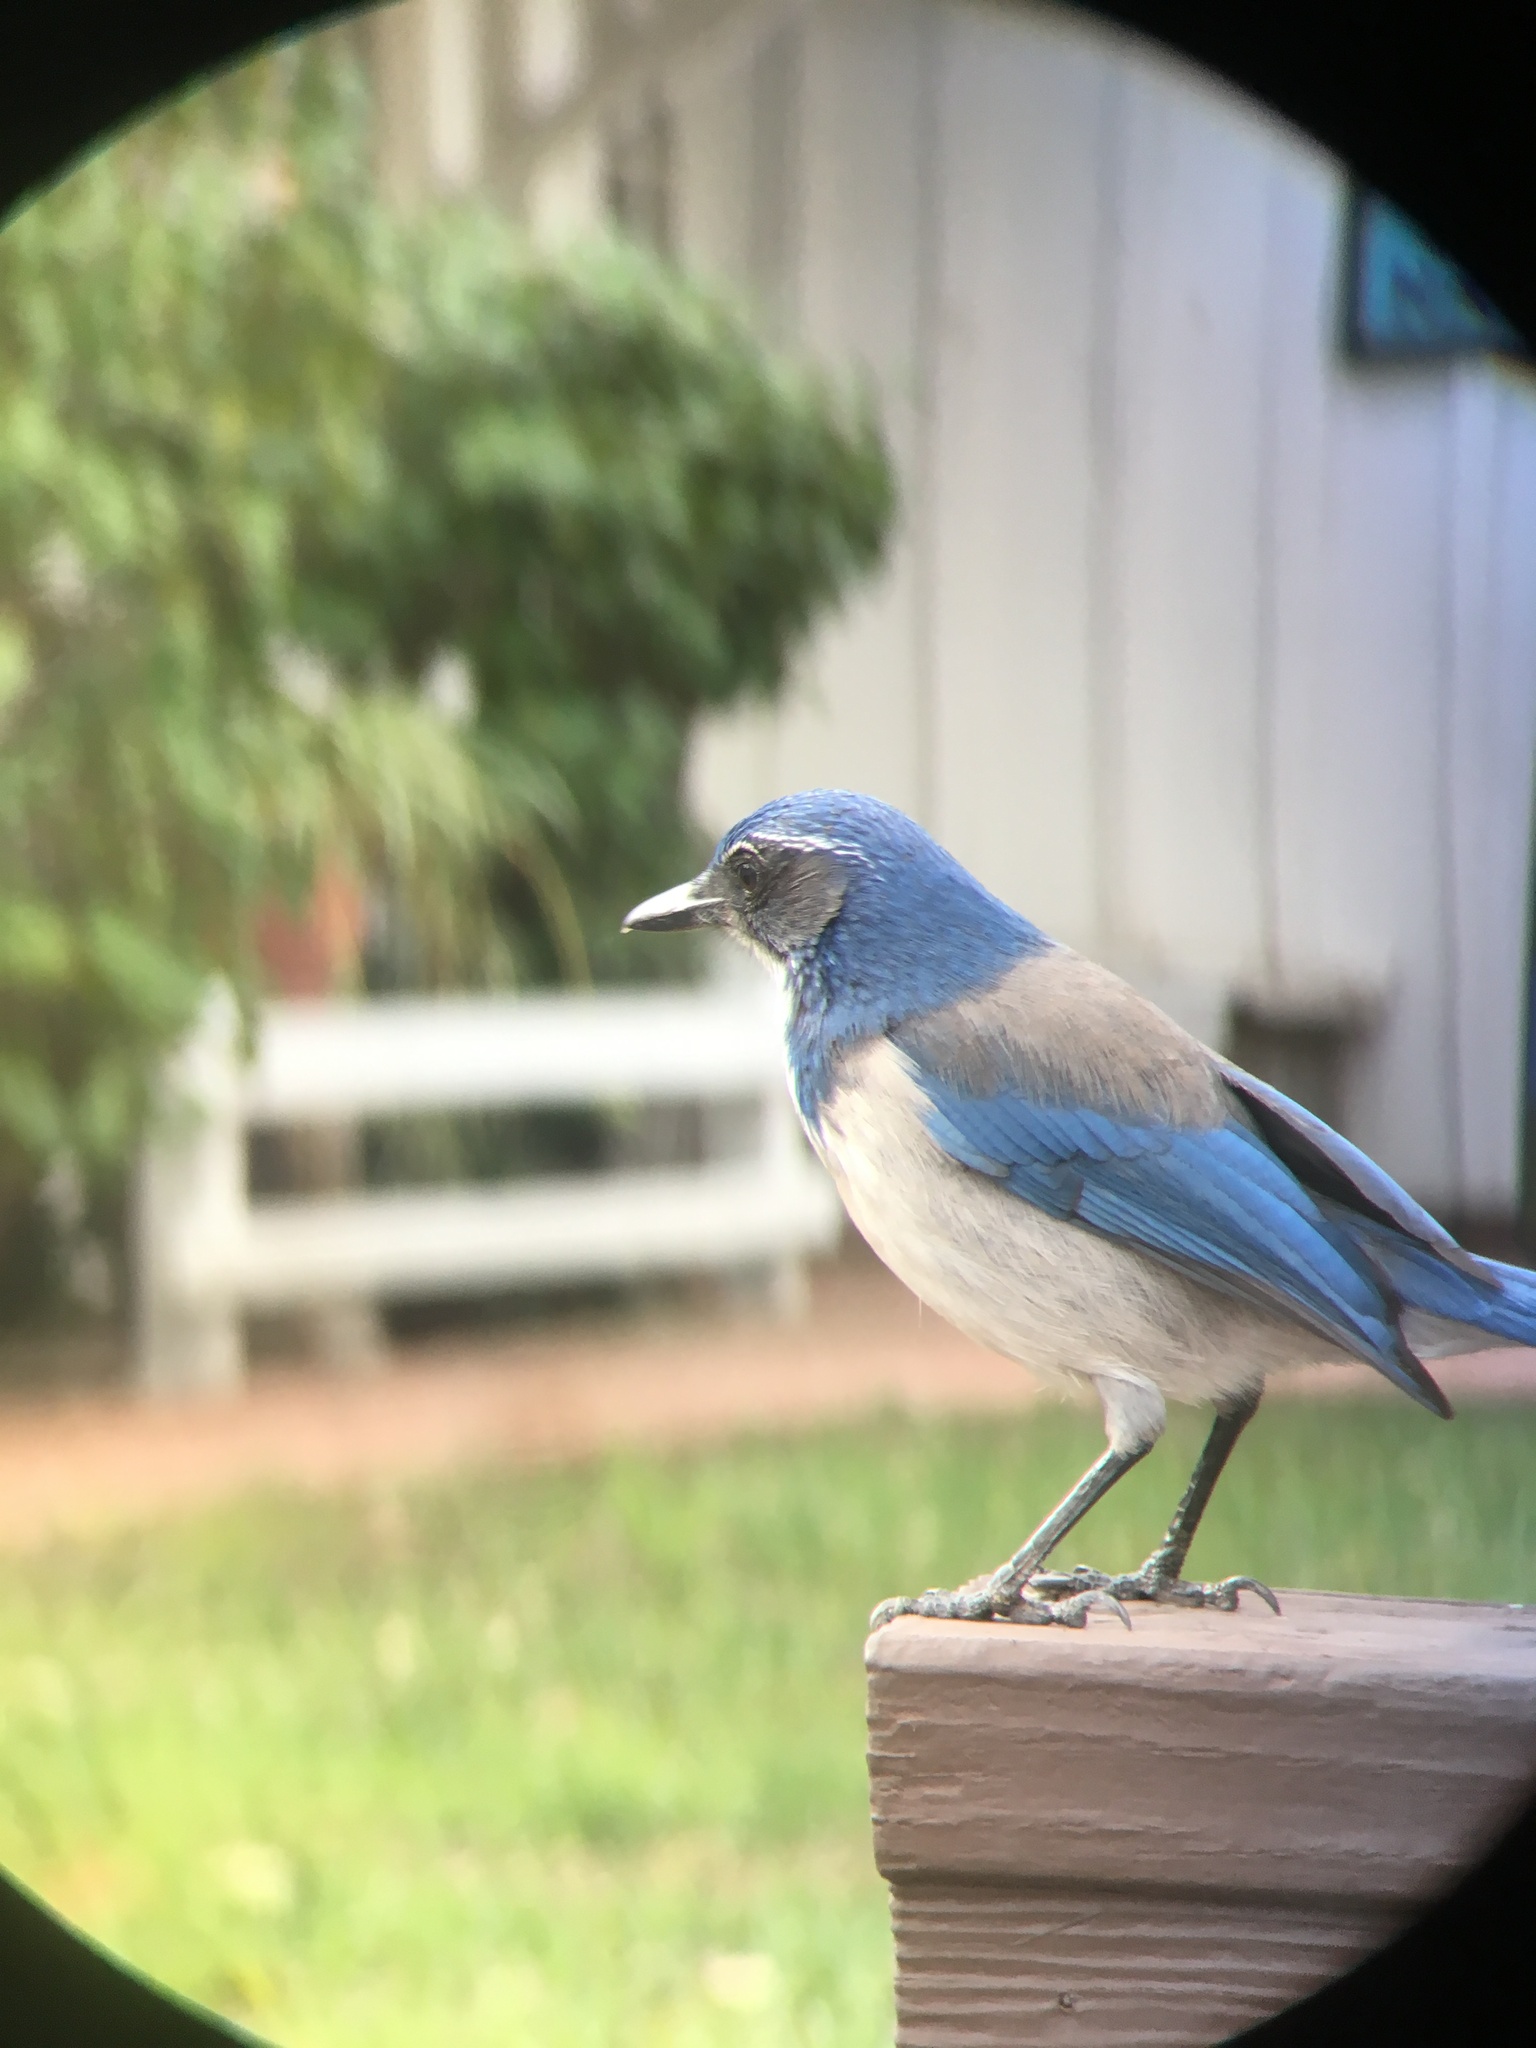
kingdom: Animalia
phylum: Chordata
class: Aves
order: Passeriformes
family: Corvidae
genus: Aphelocoma
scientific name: Aphelocoma californica
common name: California scrub-jay
